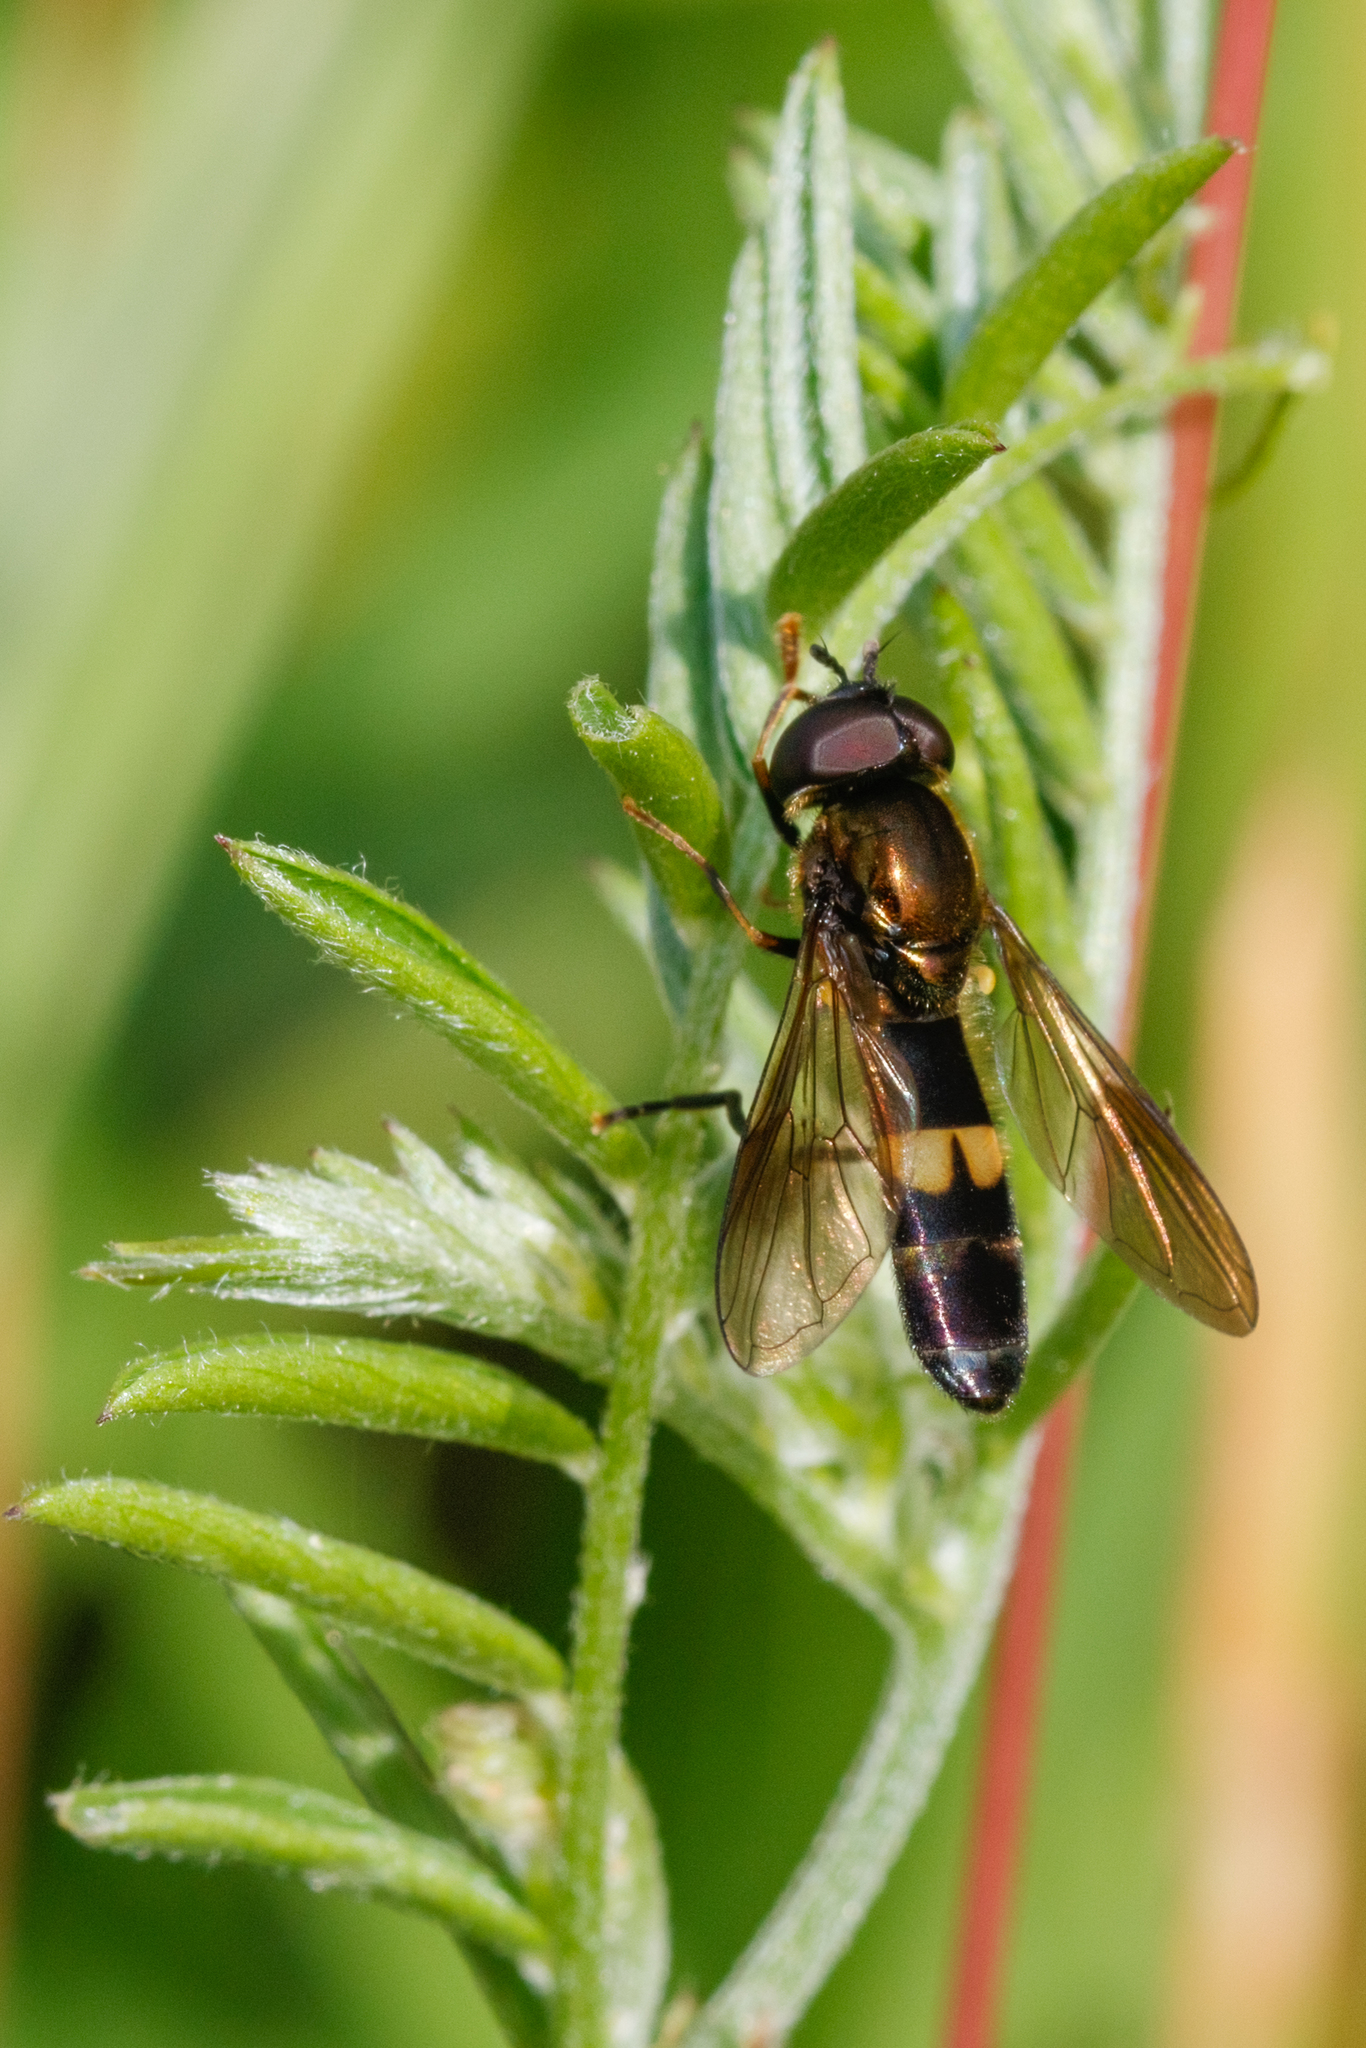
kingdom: Animalia
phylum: Arthropoda
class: Insecta
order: Diptera
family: Syrphidae
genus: Pyrophaena
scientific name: Pyrophaena rosarum
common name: Fourspot sedgesitter
